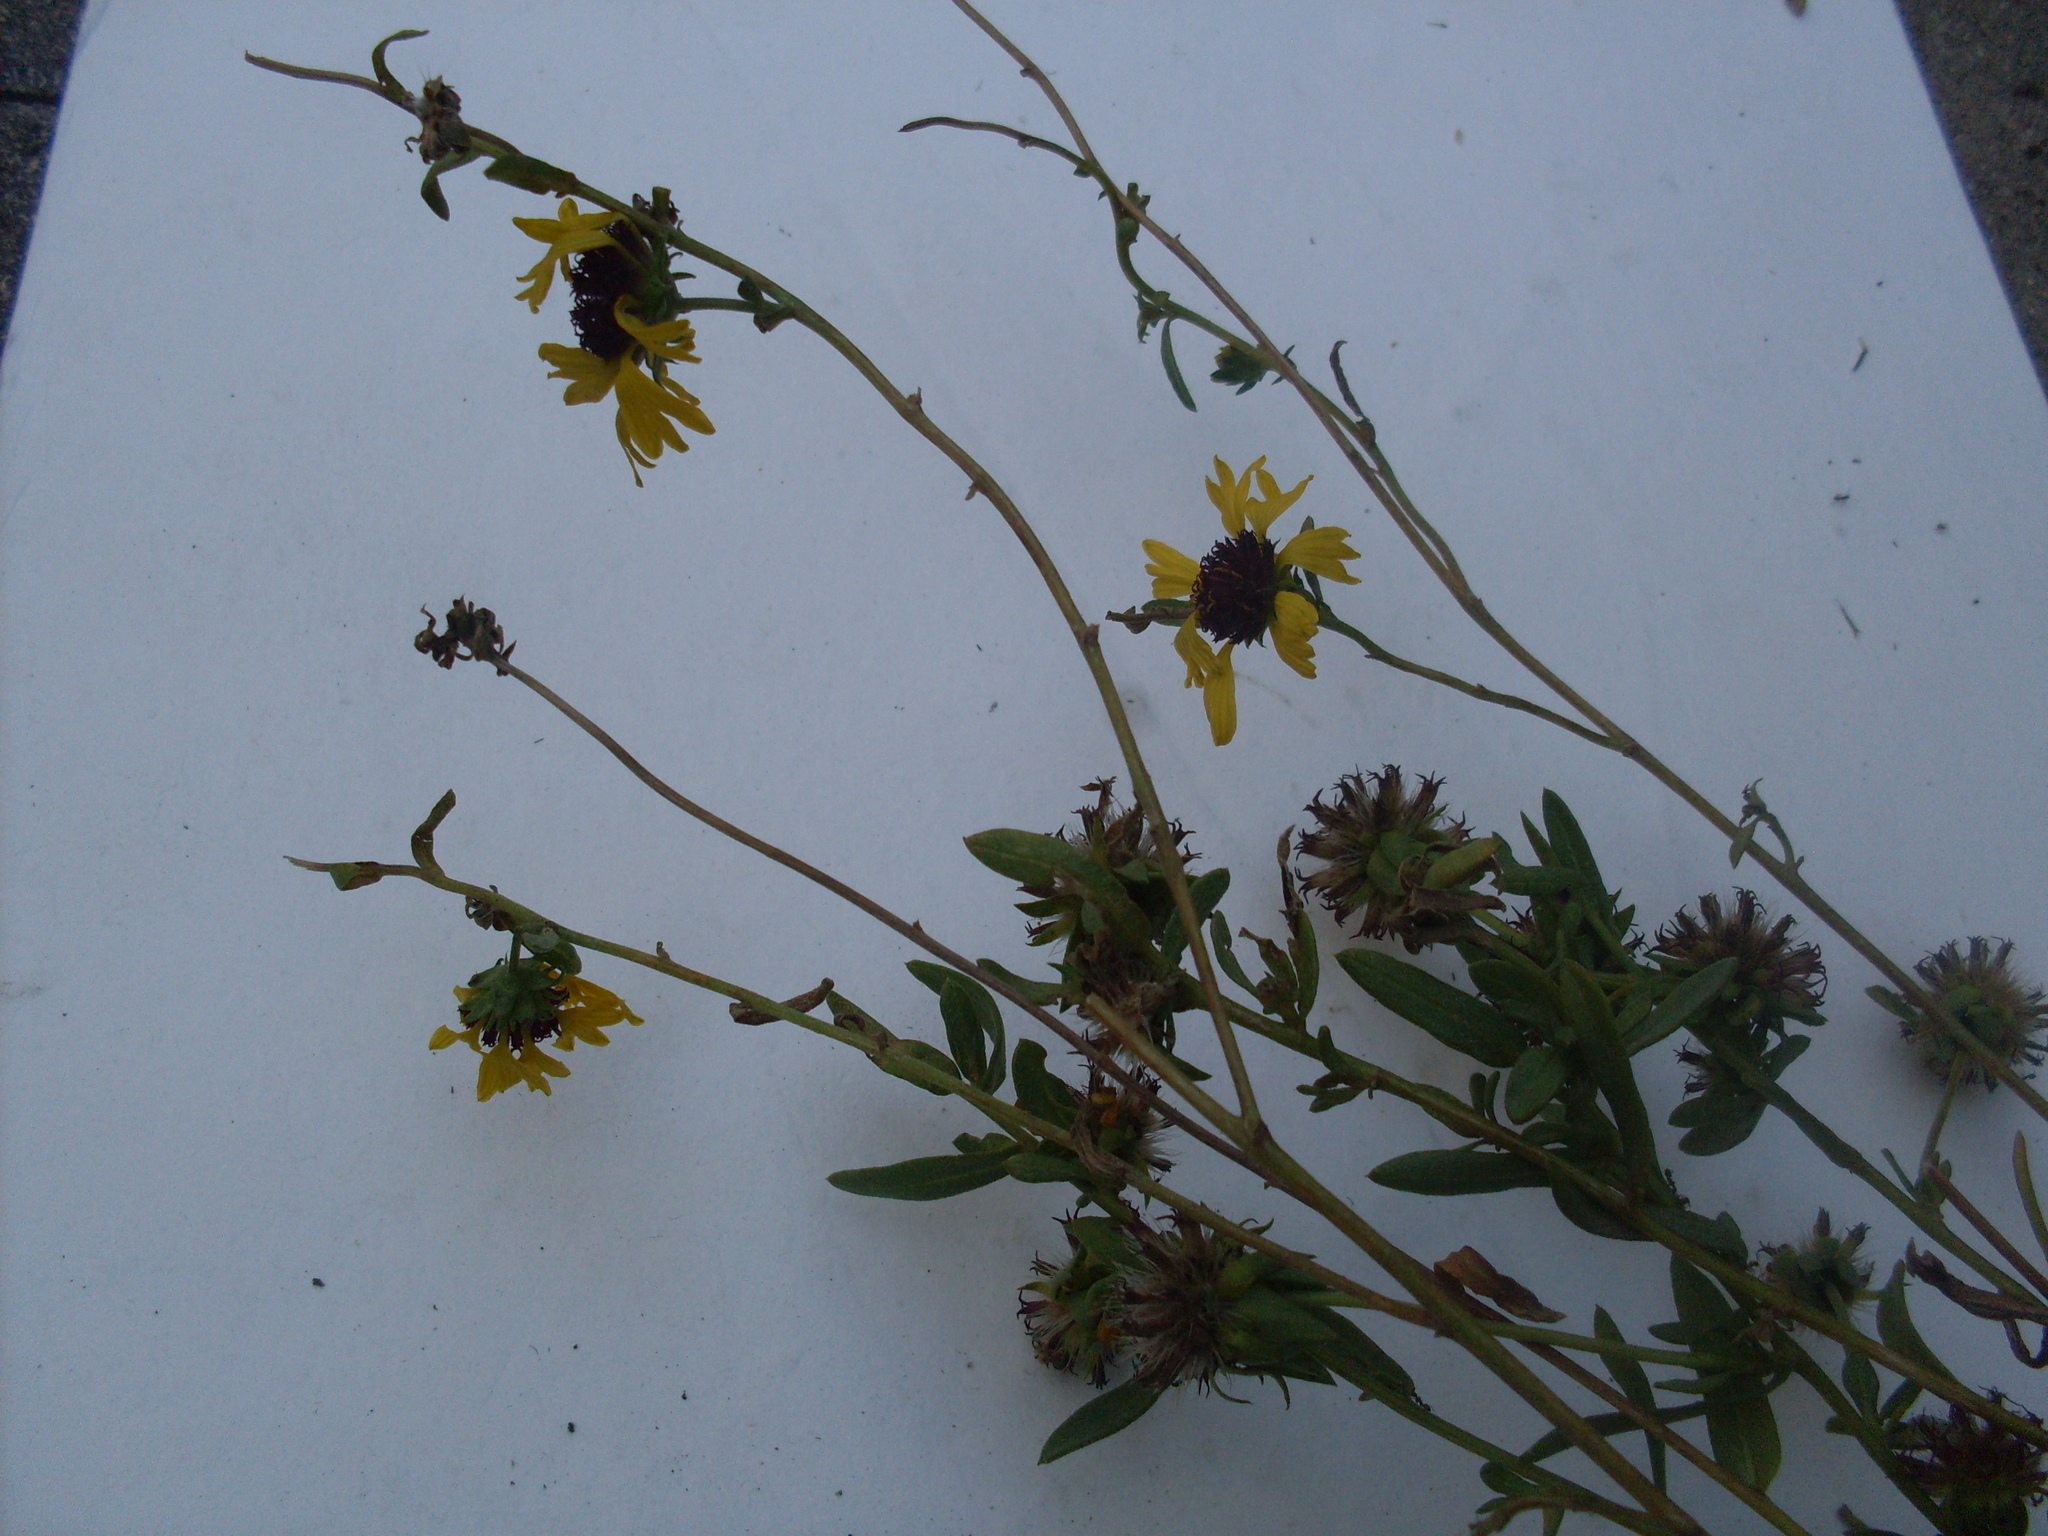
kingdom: Plantae
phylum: Tracheophyta
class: Magnoliopsida
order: Asterales
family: Asteraceae
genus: Gaillardia
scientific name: Gaillardia aestivalis
